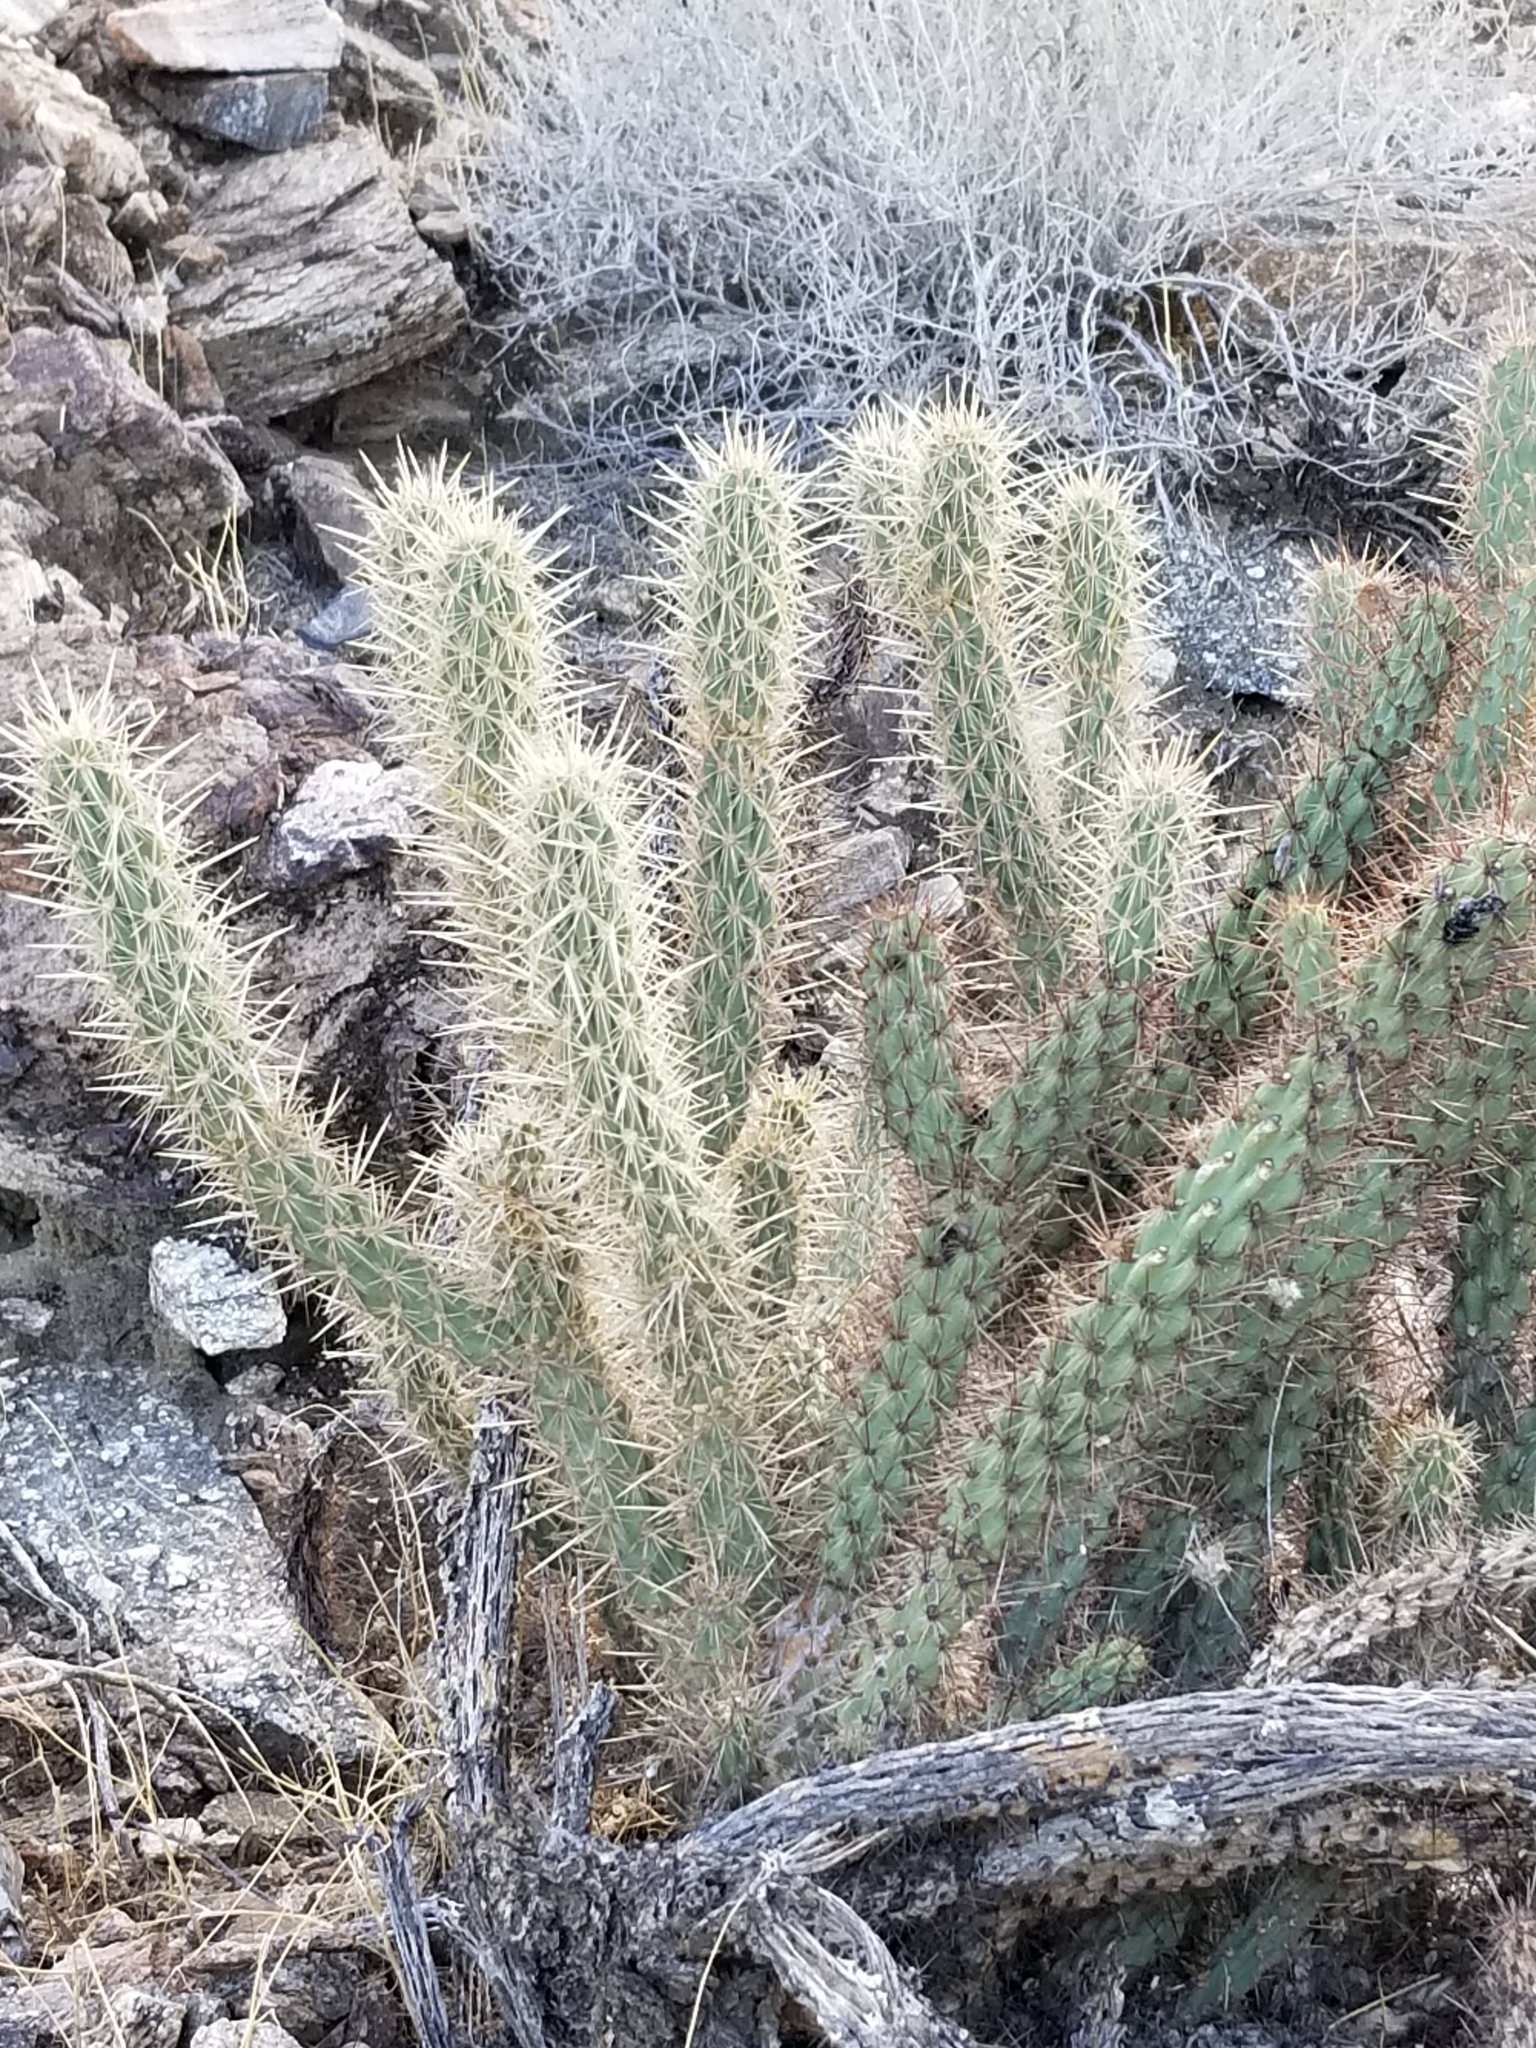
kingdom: Plantae
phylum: Tracheophyta
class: Magnoliopsida
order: Caryophyllales
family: Cactaceae
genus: Cylindropuntia
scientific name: Cylindropuntia ganderi
